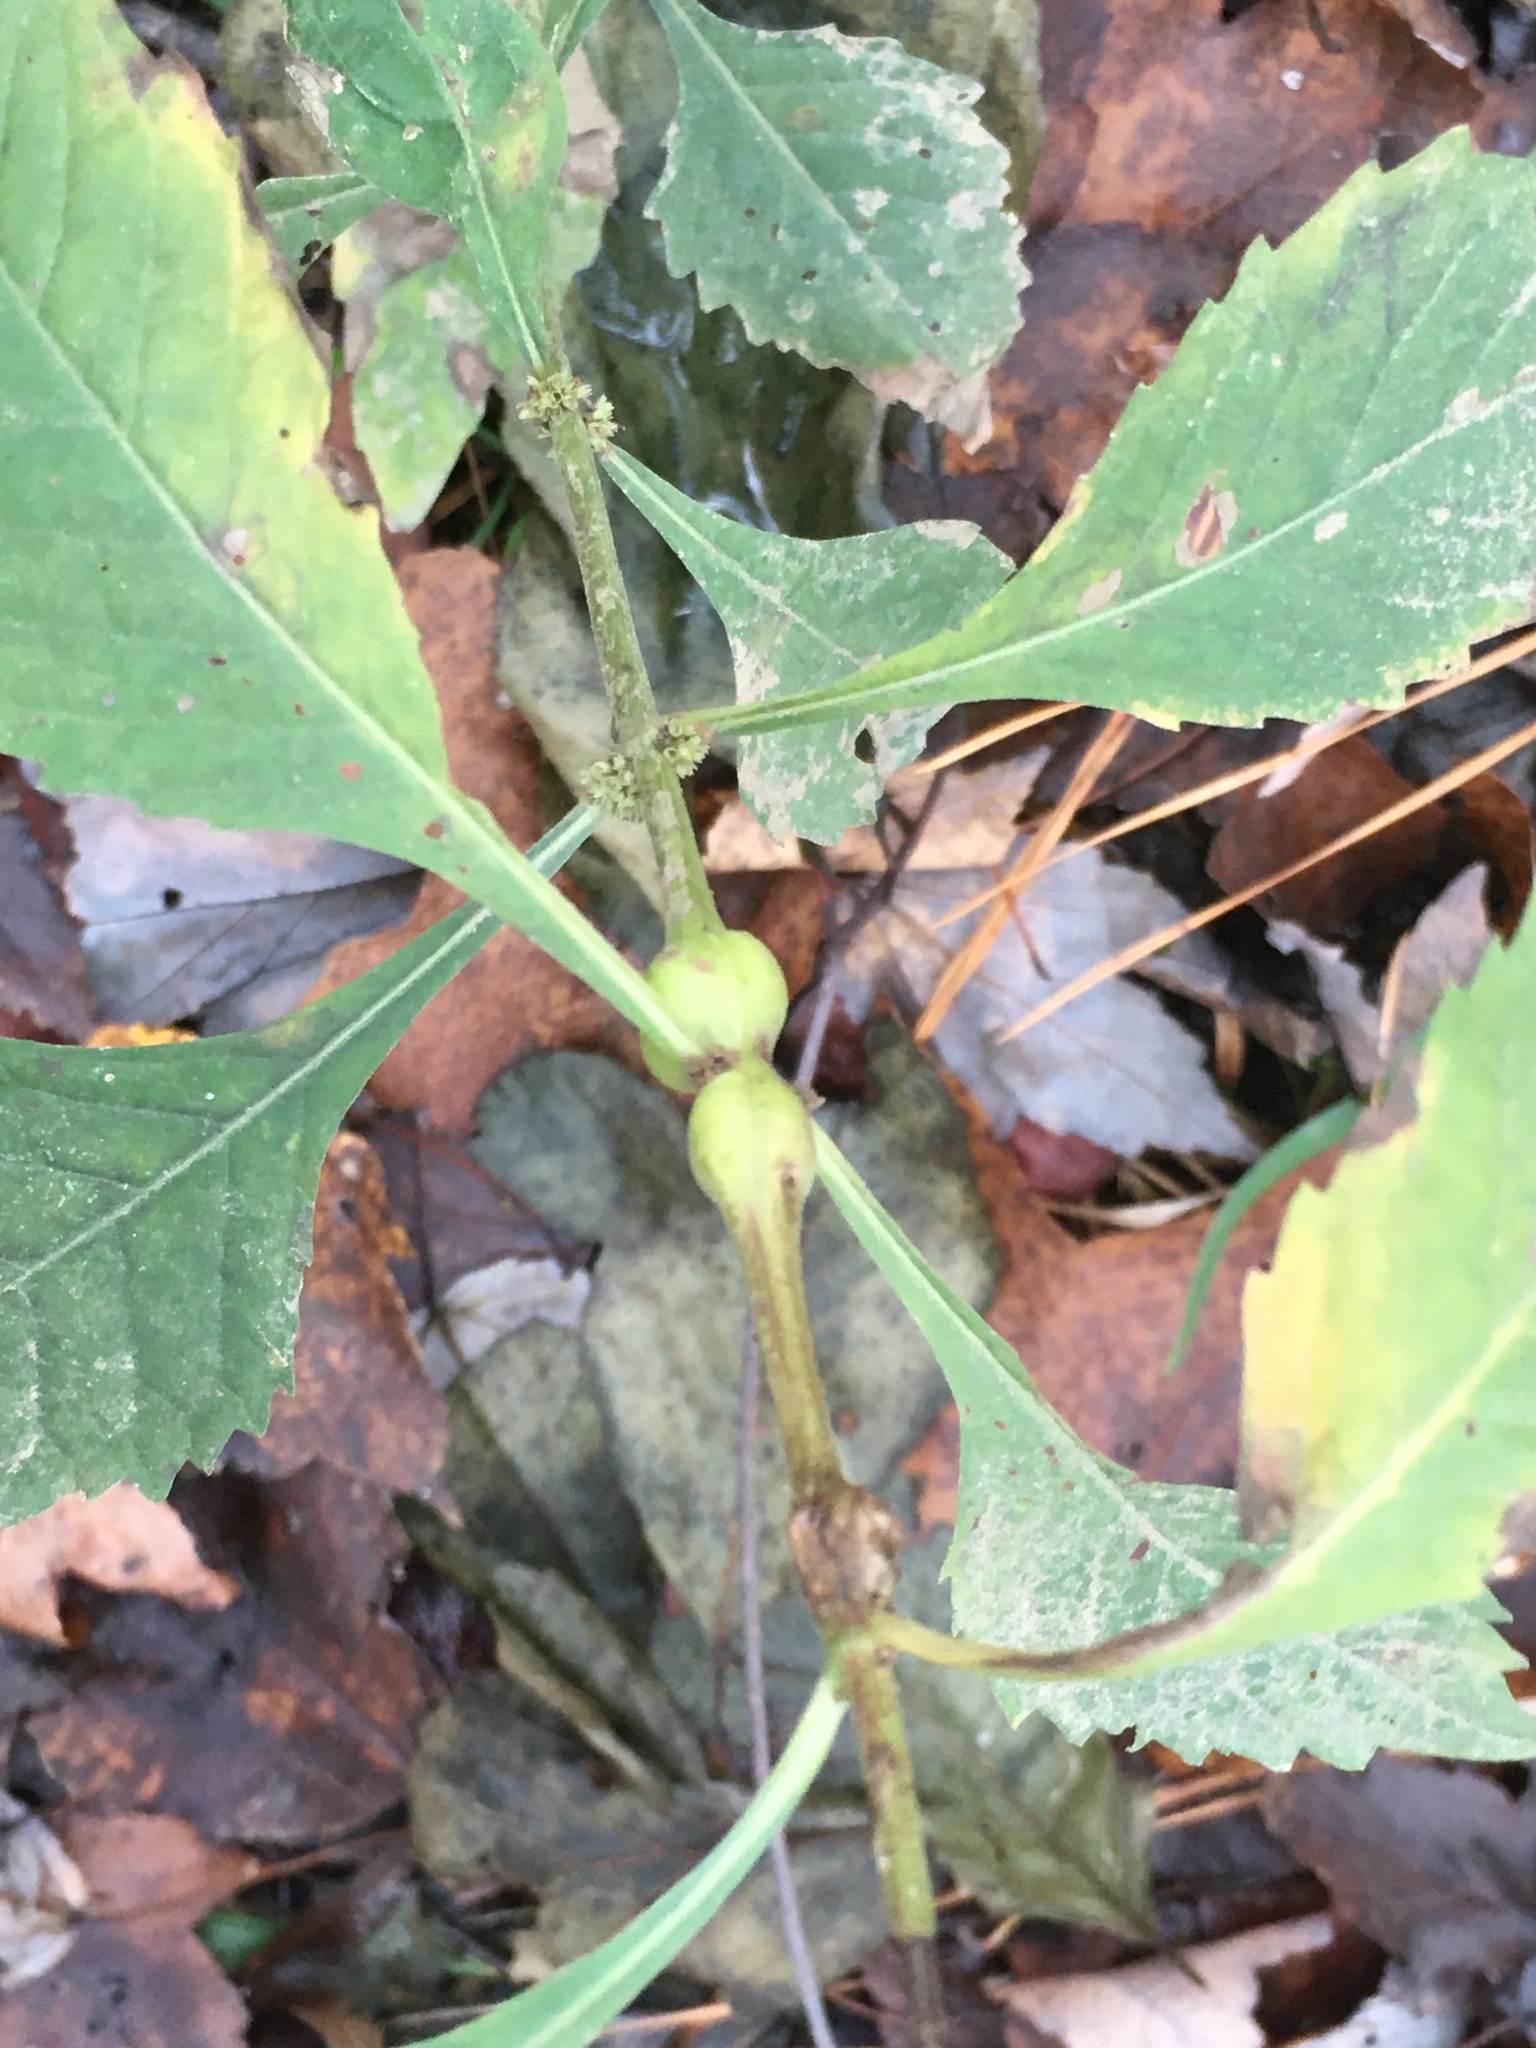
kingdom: Animalia
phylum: Arthropoda
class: Insecta
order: Diptera
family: Cecidomyiidae
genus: Neolasioptera
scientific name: Neolasioptera lycopi
